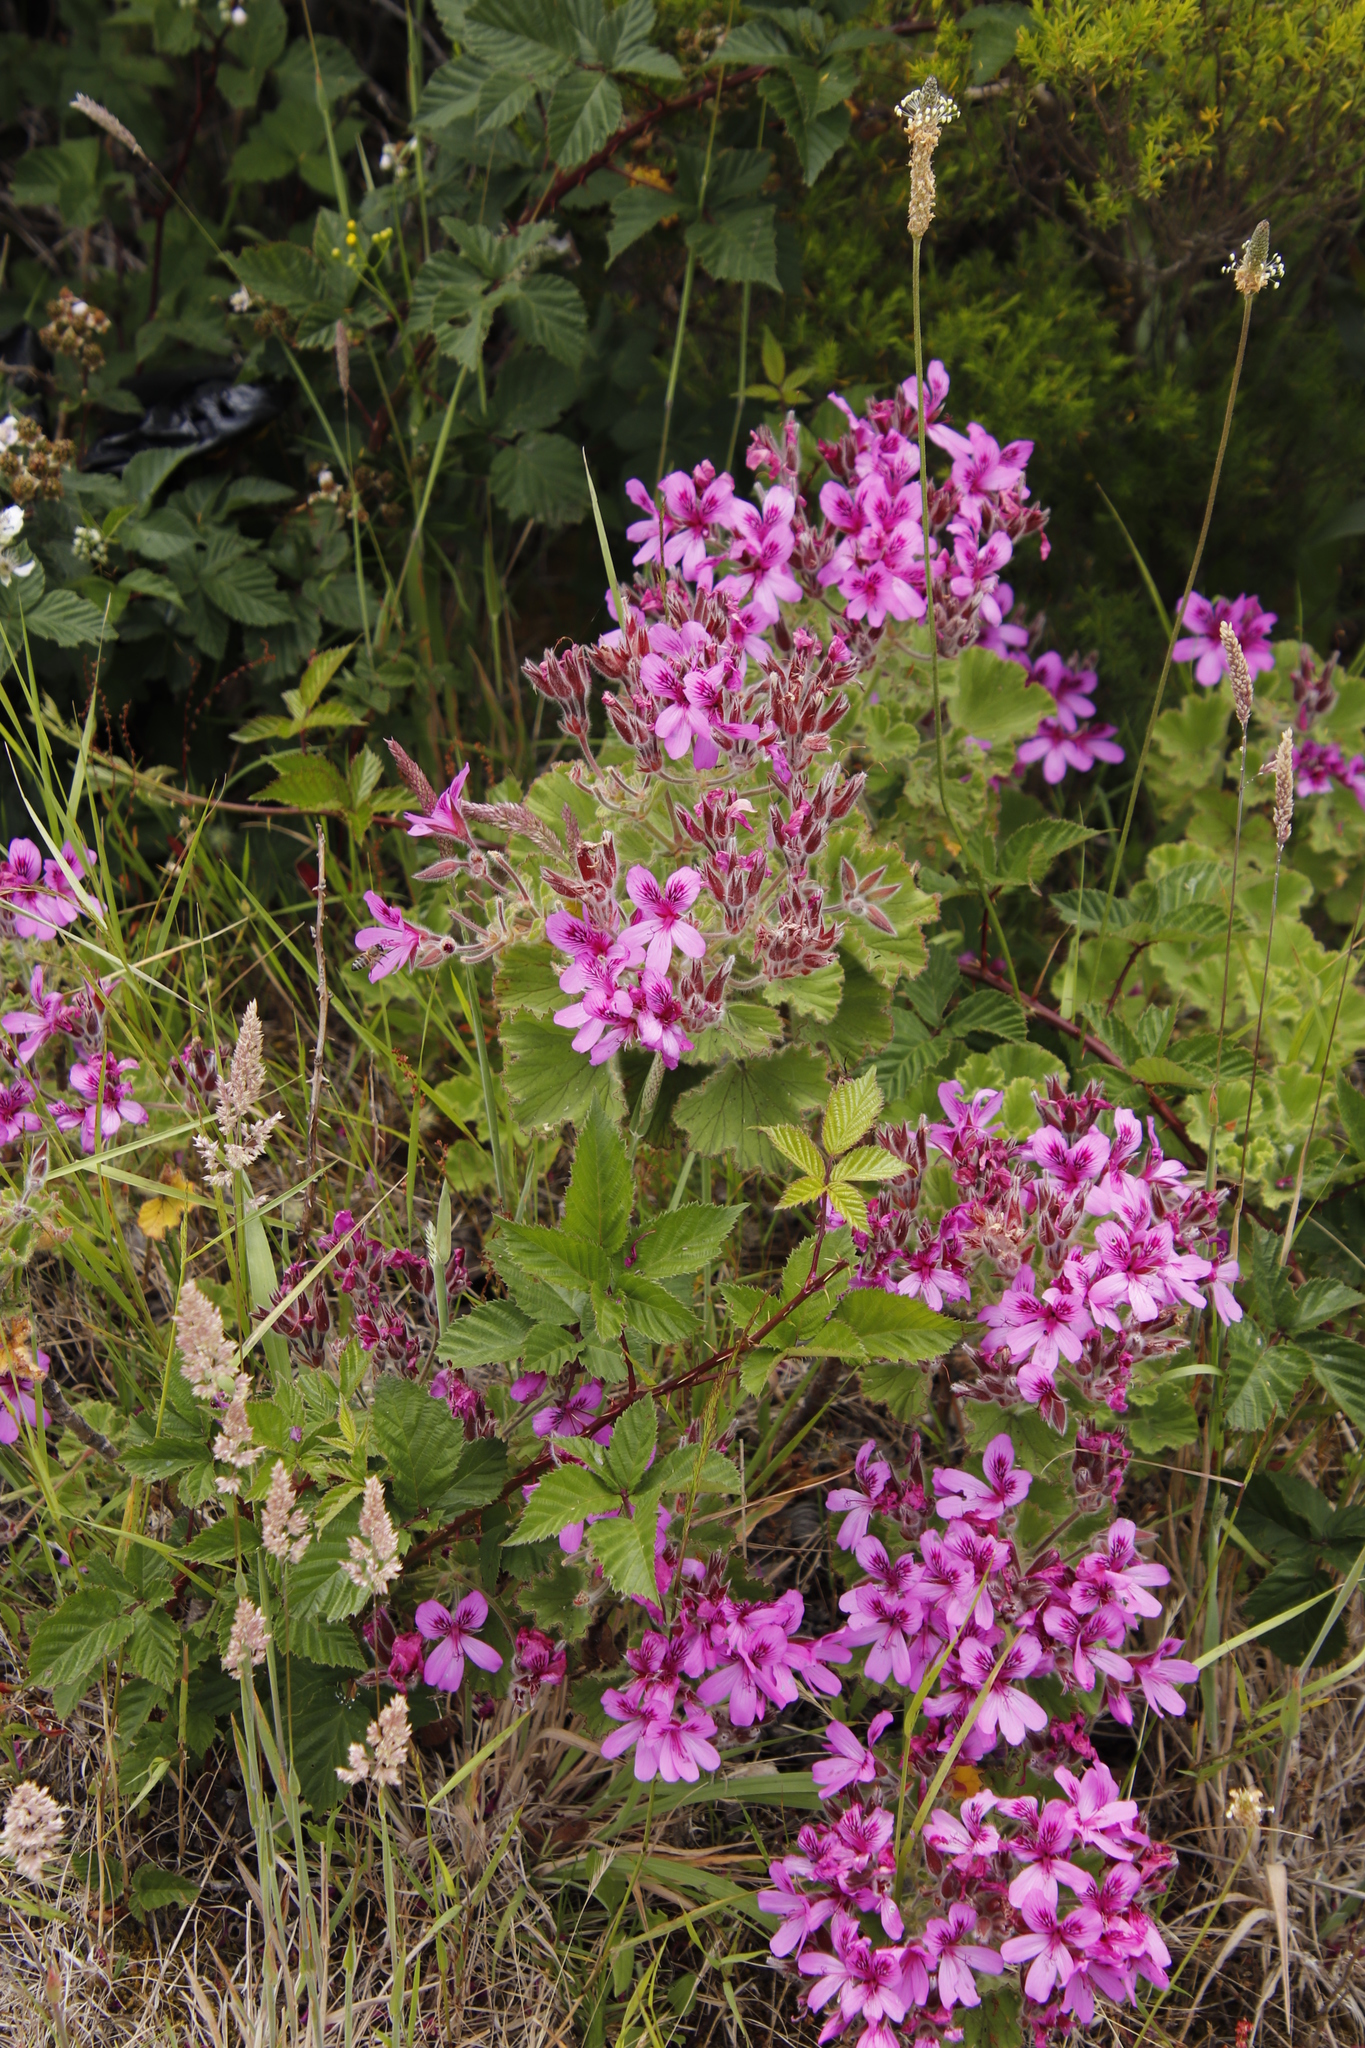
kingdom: Plantae
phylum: Tracheophyta
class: Magnoliopsida
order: Geraniales
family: Geraniaceae
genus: Pelargonium
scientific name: Pelargonium cucullatum
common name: Tree pelargonium
